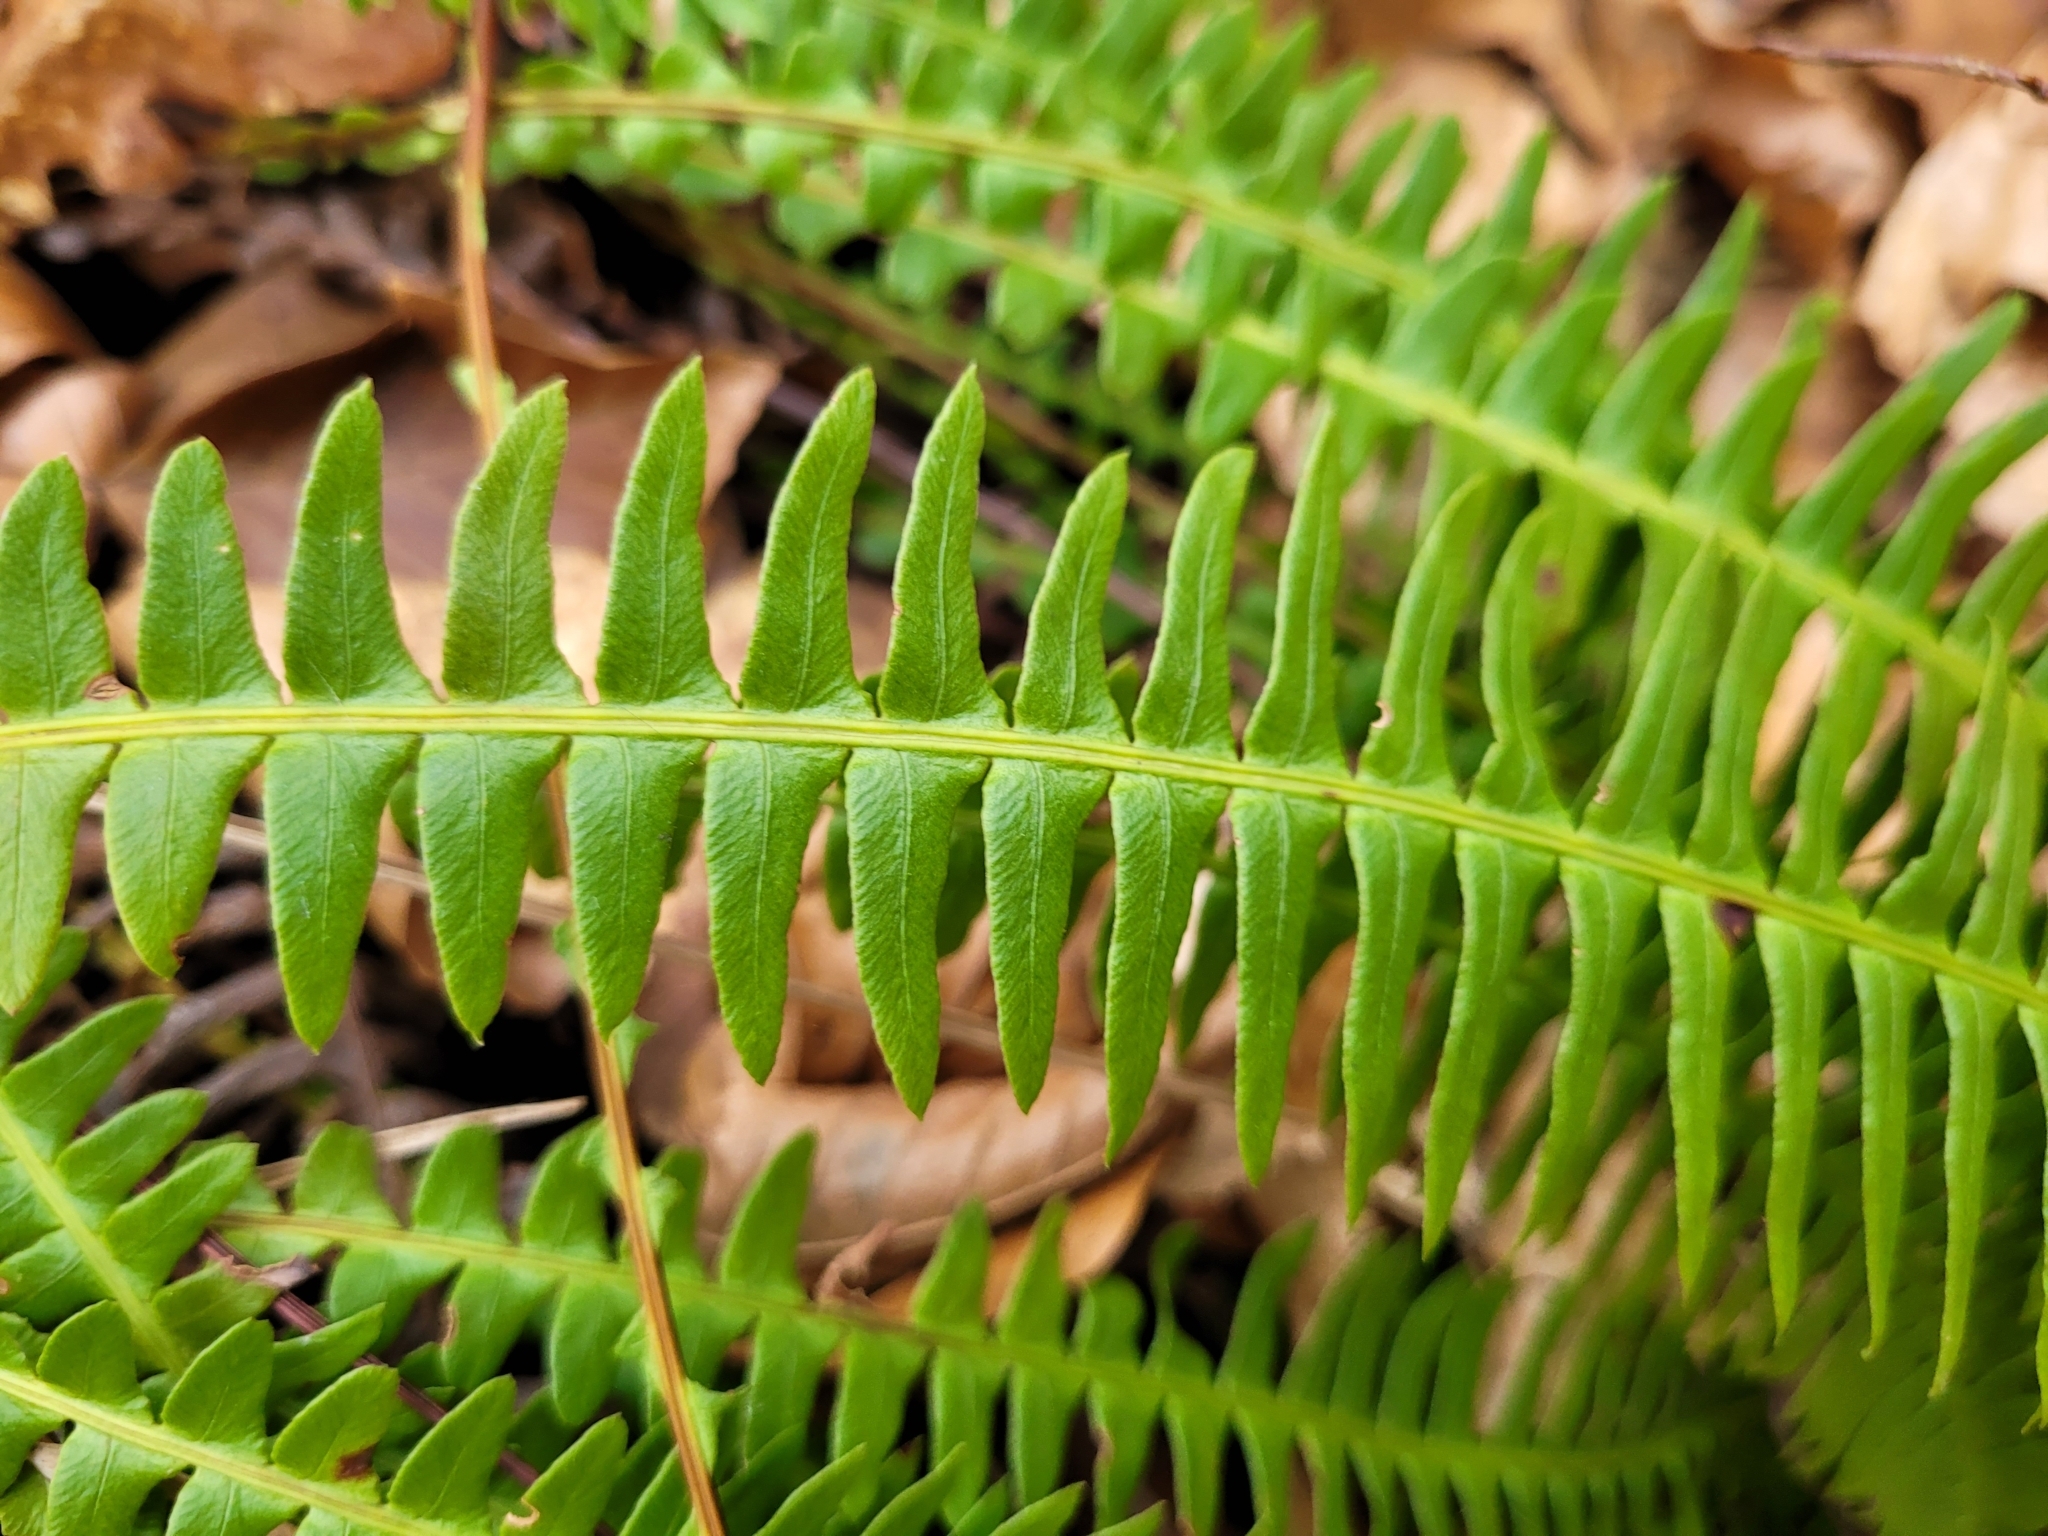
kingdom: Plantae
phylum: Tracheophyta
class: Polypodiopsida
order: Polypodiales
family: Blechnaceae
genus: Struthiopteris
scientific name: Struthiopteris spicant
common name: Deer fern
